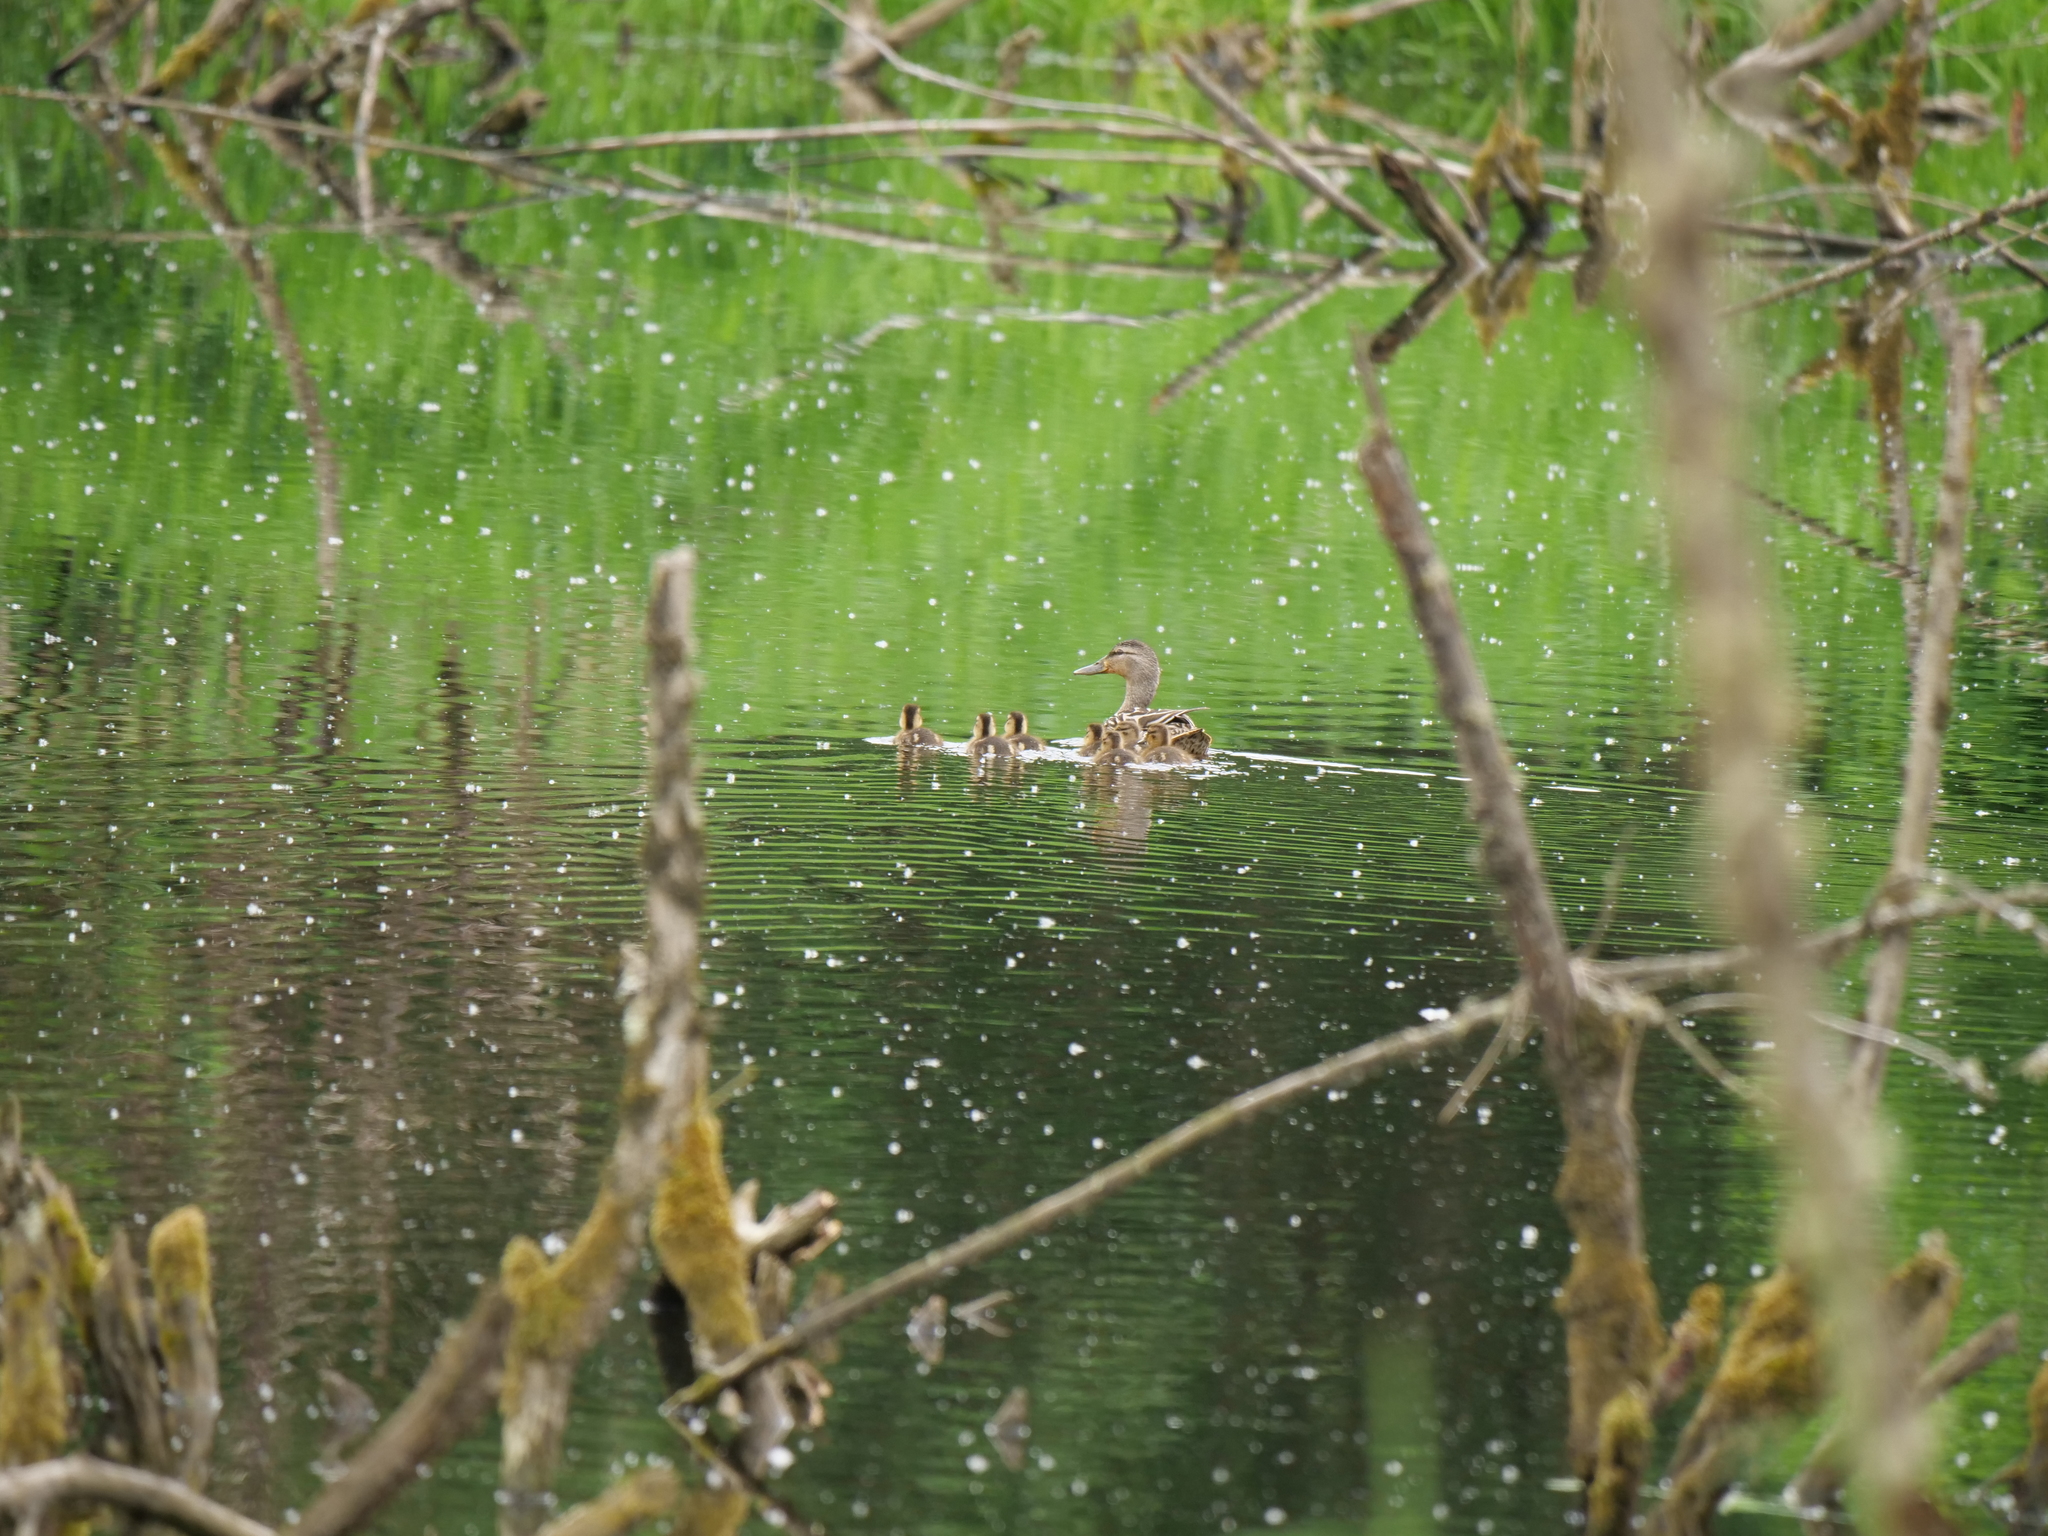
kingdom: Animalia
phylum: Chordata
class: Aves
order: Anseriformes
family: Anatidae
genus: Anas
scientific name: Anas platyrhynchos
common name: Mallard
